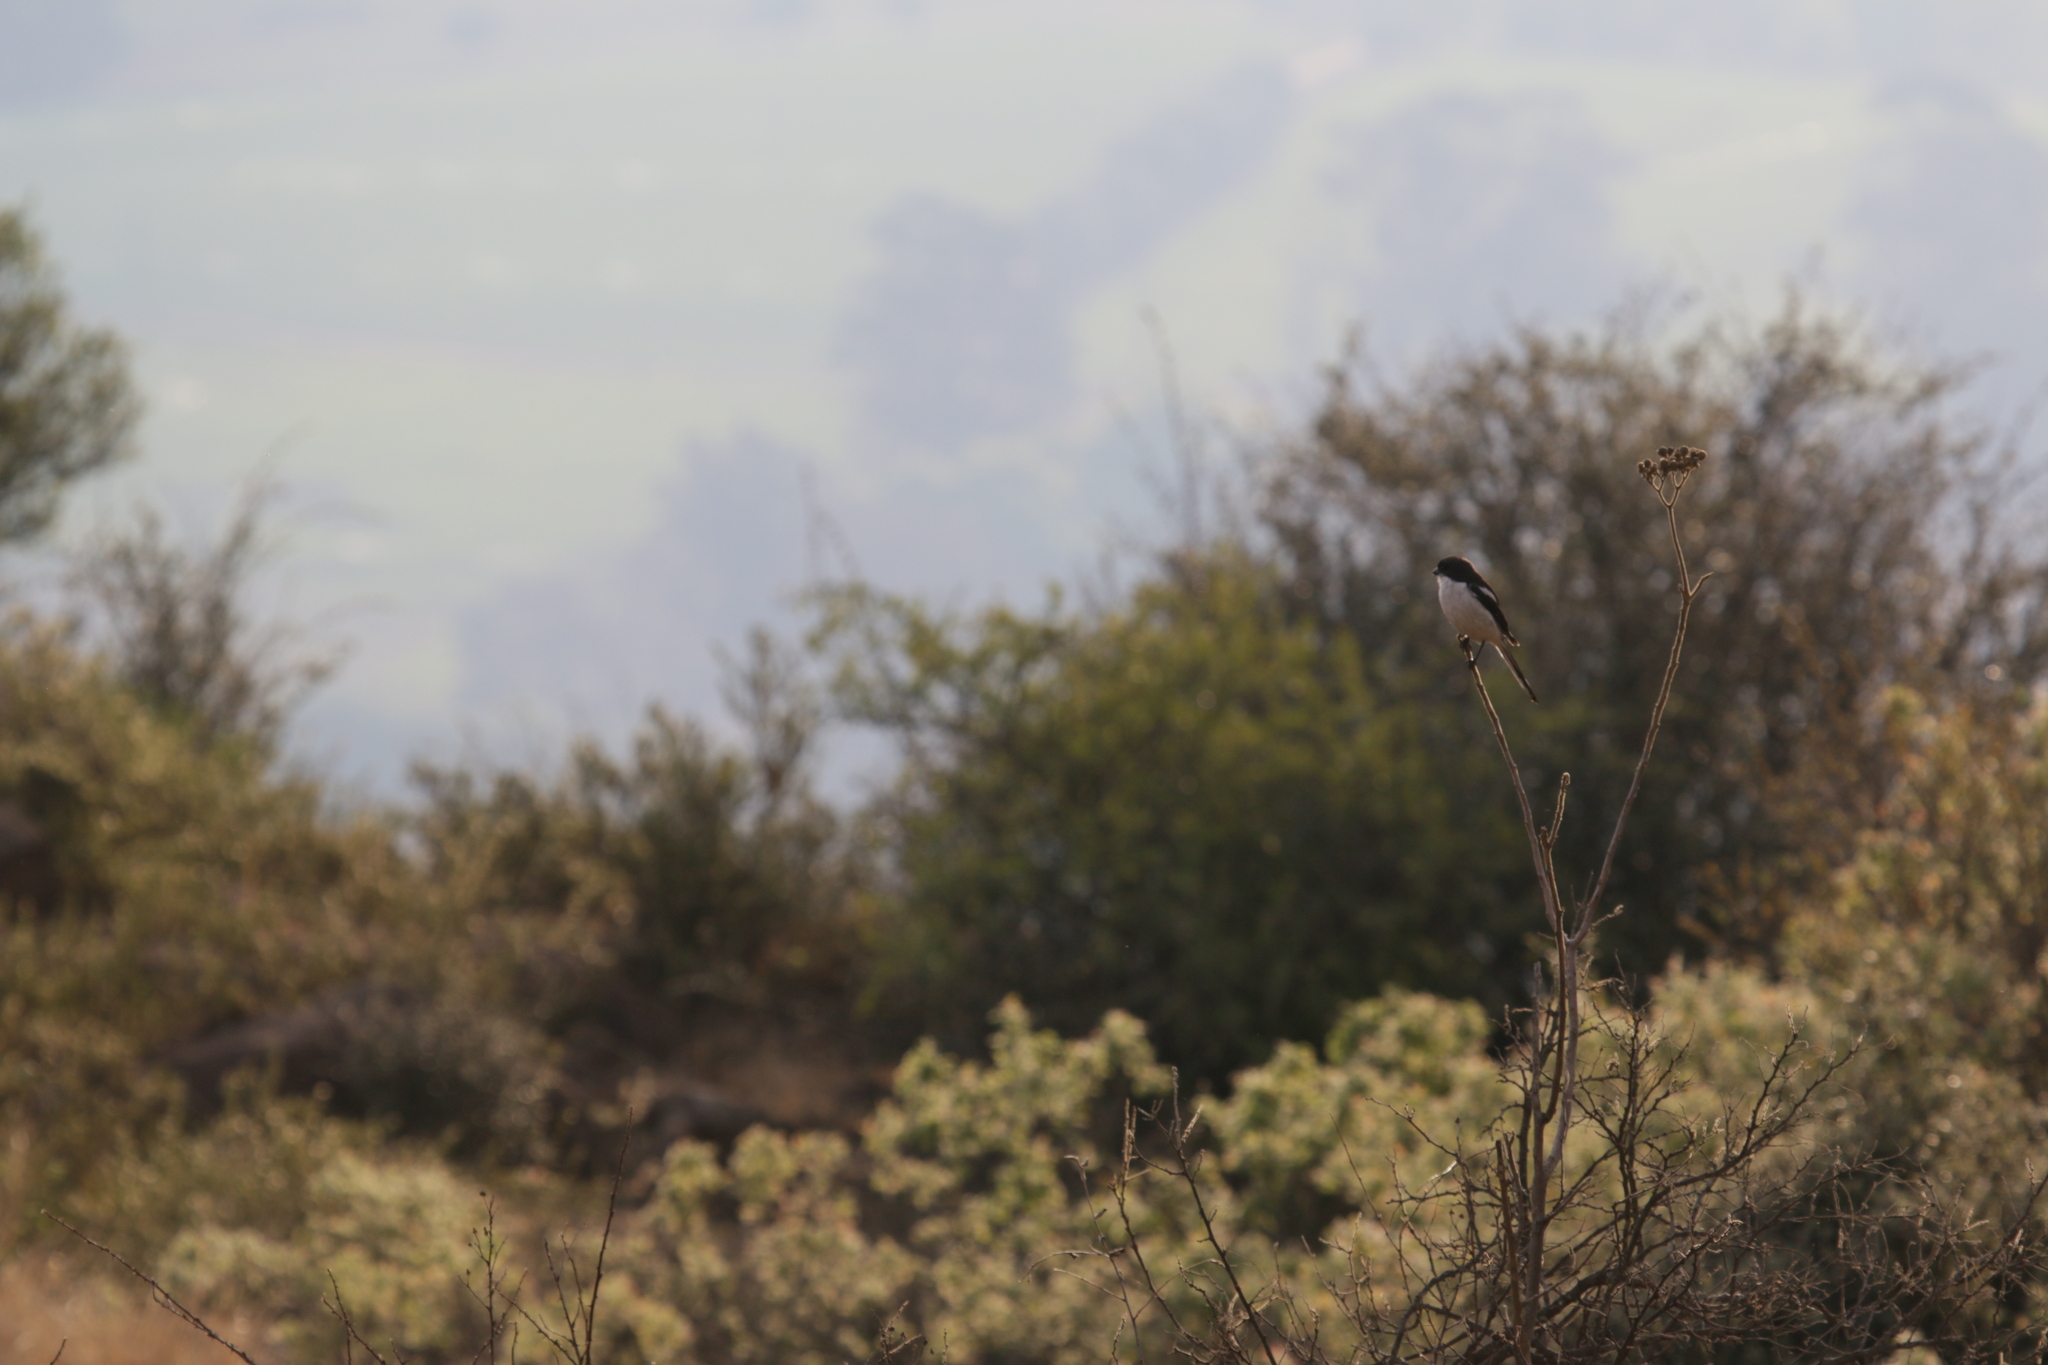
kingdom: Animalia
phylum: Chordata
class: Aves
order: Passeriformes
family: Laniidae
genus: Lanius
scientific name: Lanius collaris
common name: Southern fiscal
